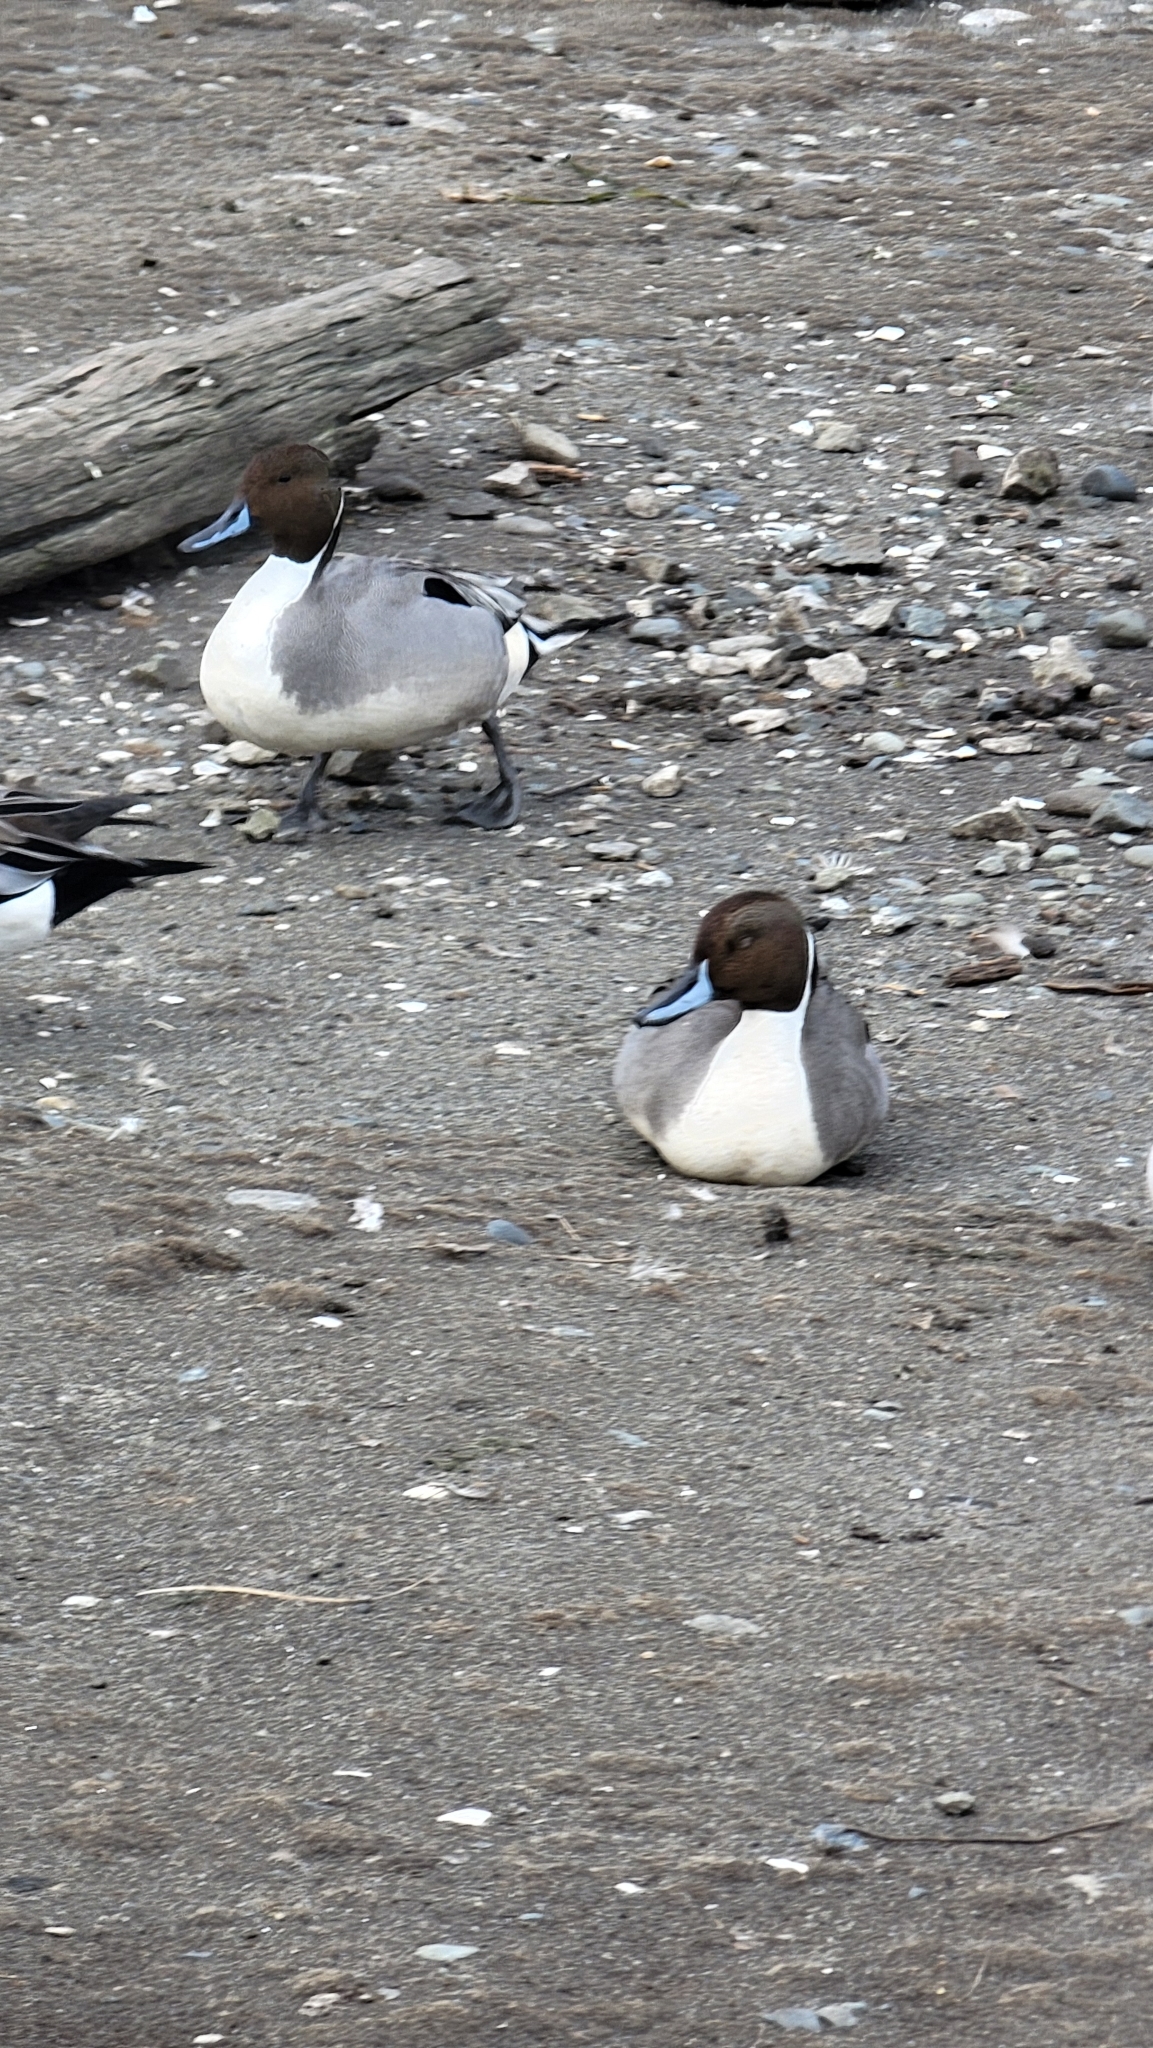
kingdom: Animalia
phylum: Chordata
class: Aves
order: Anseriformes
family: Anatidae
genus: Anas
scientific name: Anas acuta
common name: Northern pintail
